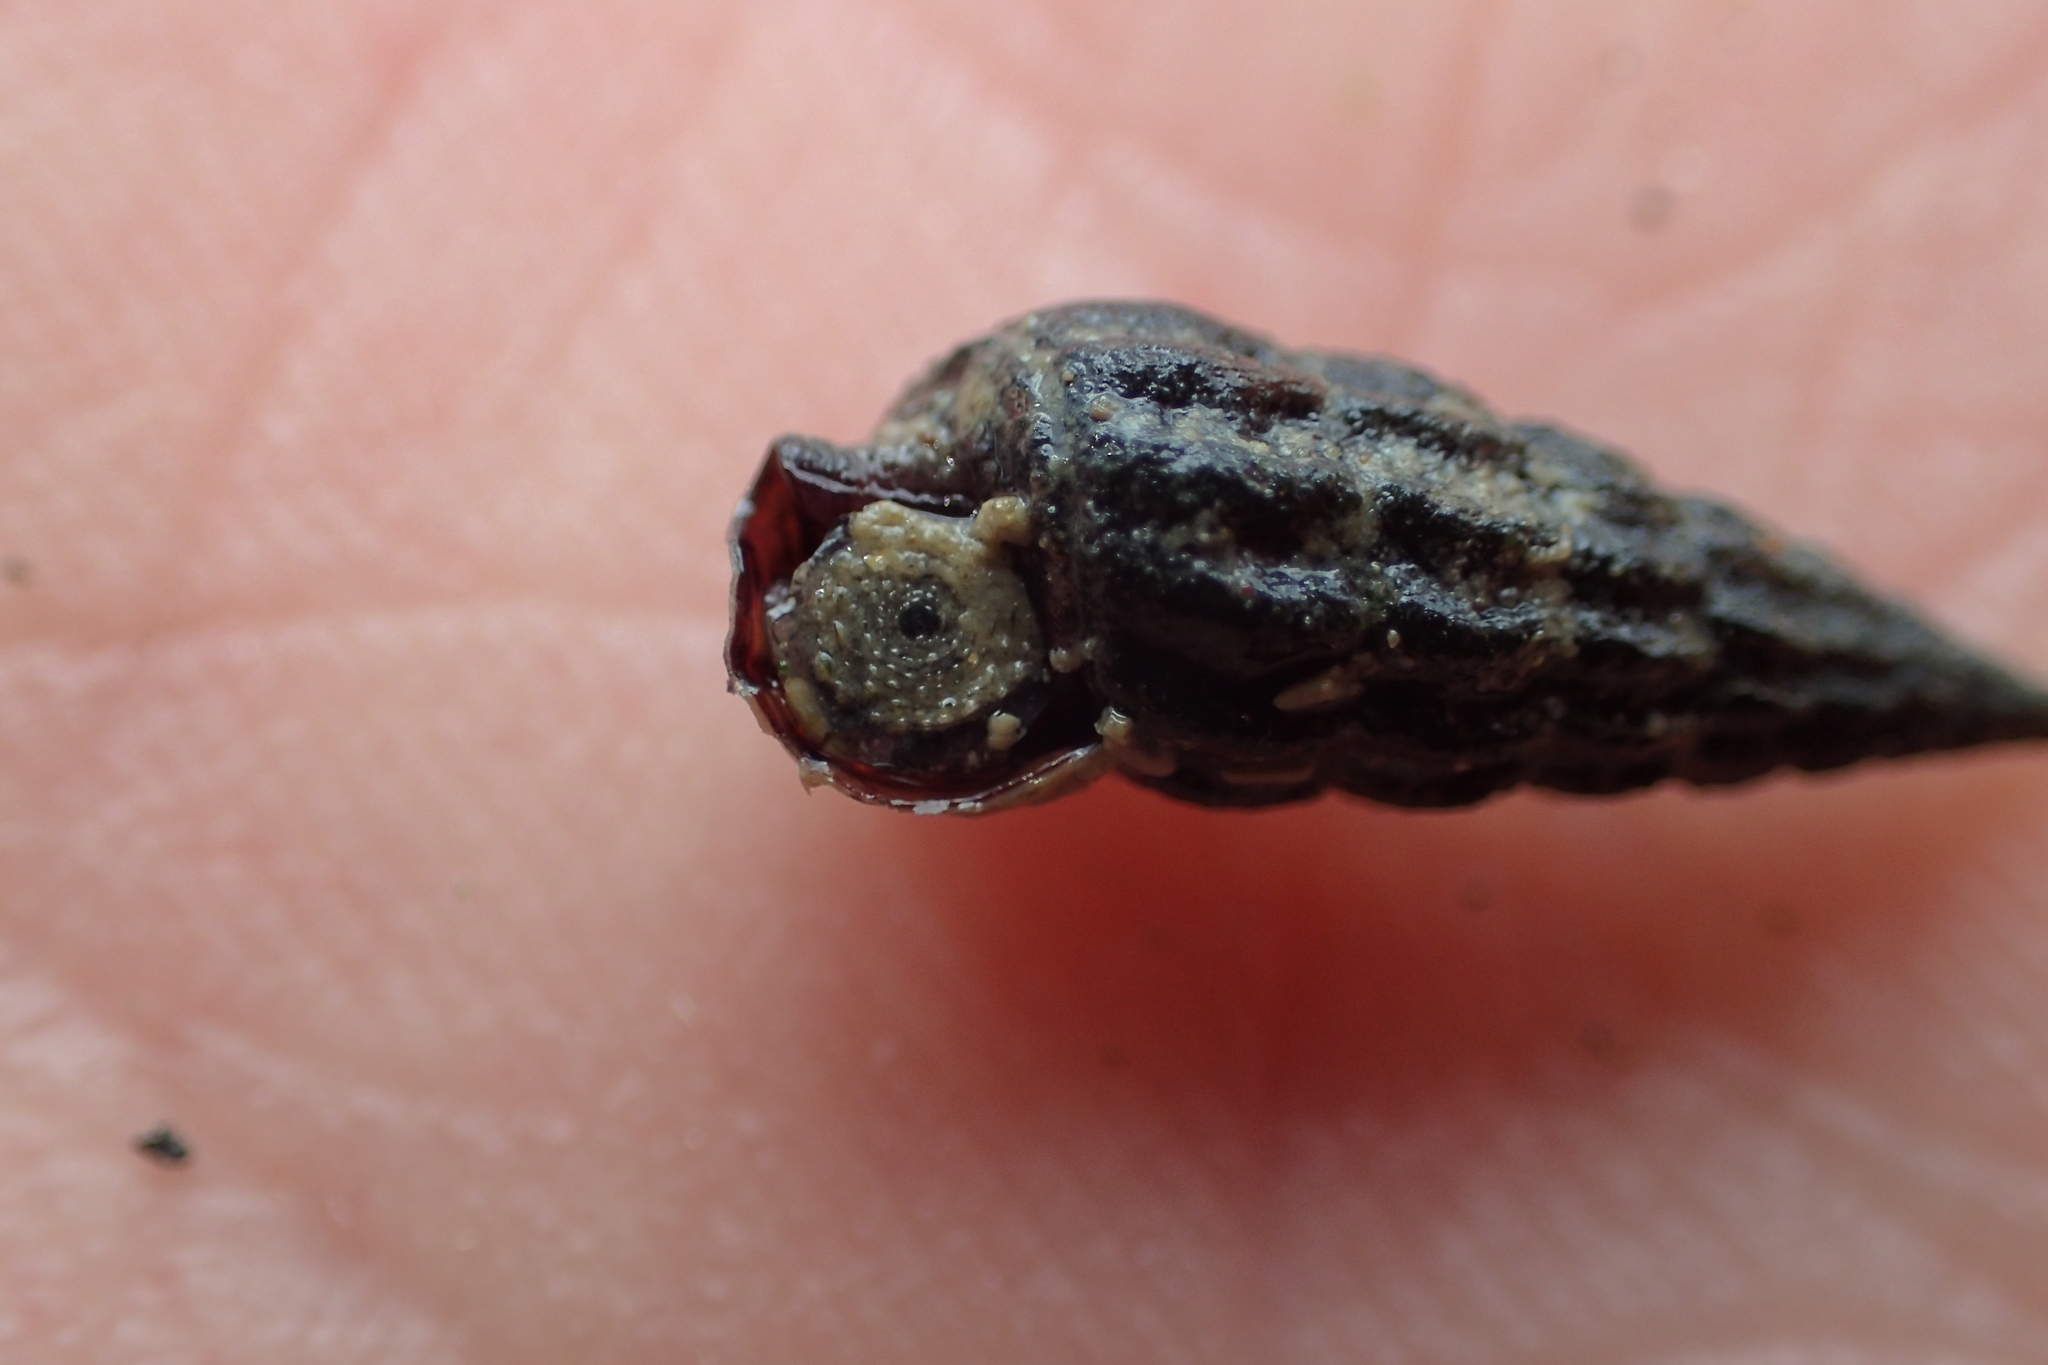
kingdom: Animalia
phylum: Mollusca
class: Gastropoda
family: Batillariidae
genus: Zeacumantus
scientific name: Zeacumantus subcarinatus
